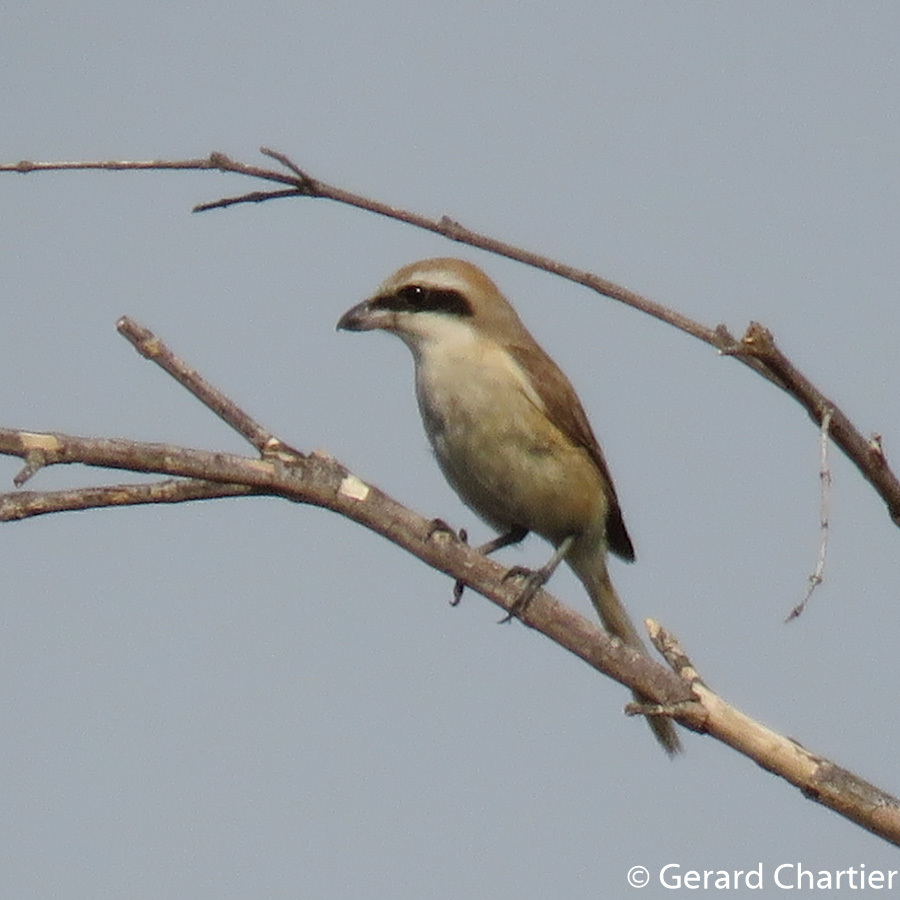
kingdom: Animalia
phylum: Chordata
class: Aves
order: Passeriformes
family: Laniidae
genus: Lanius
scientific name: Lanius cristatus
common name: Brown shrike
